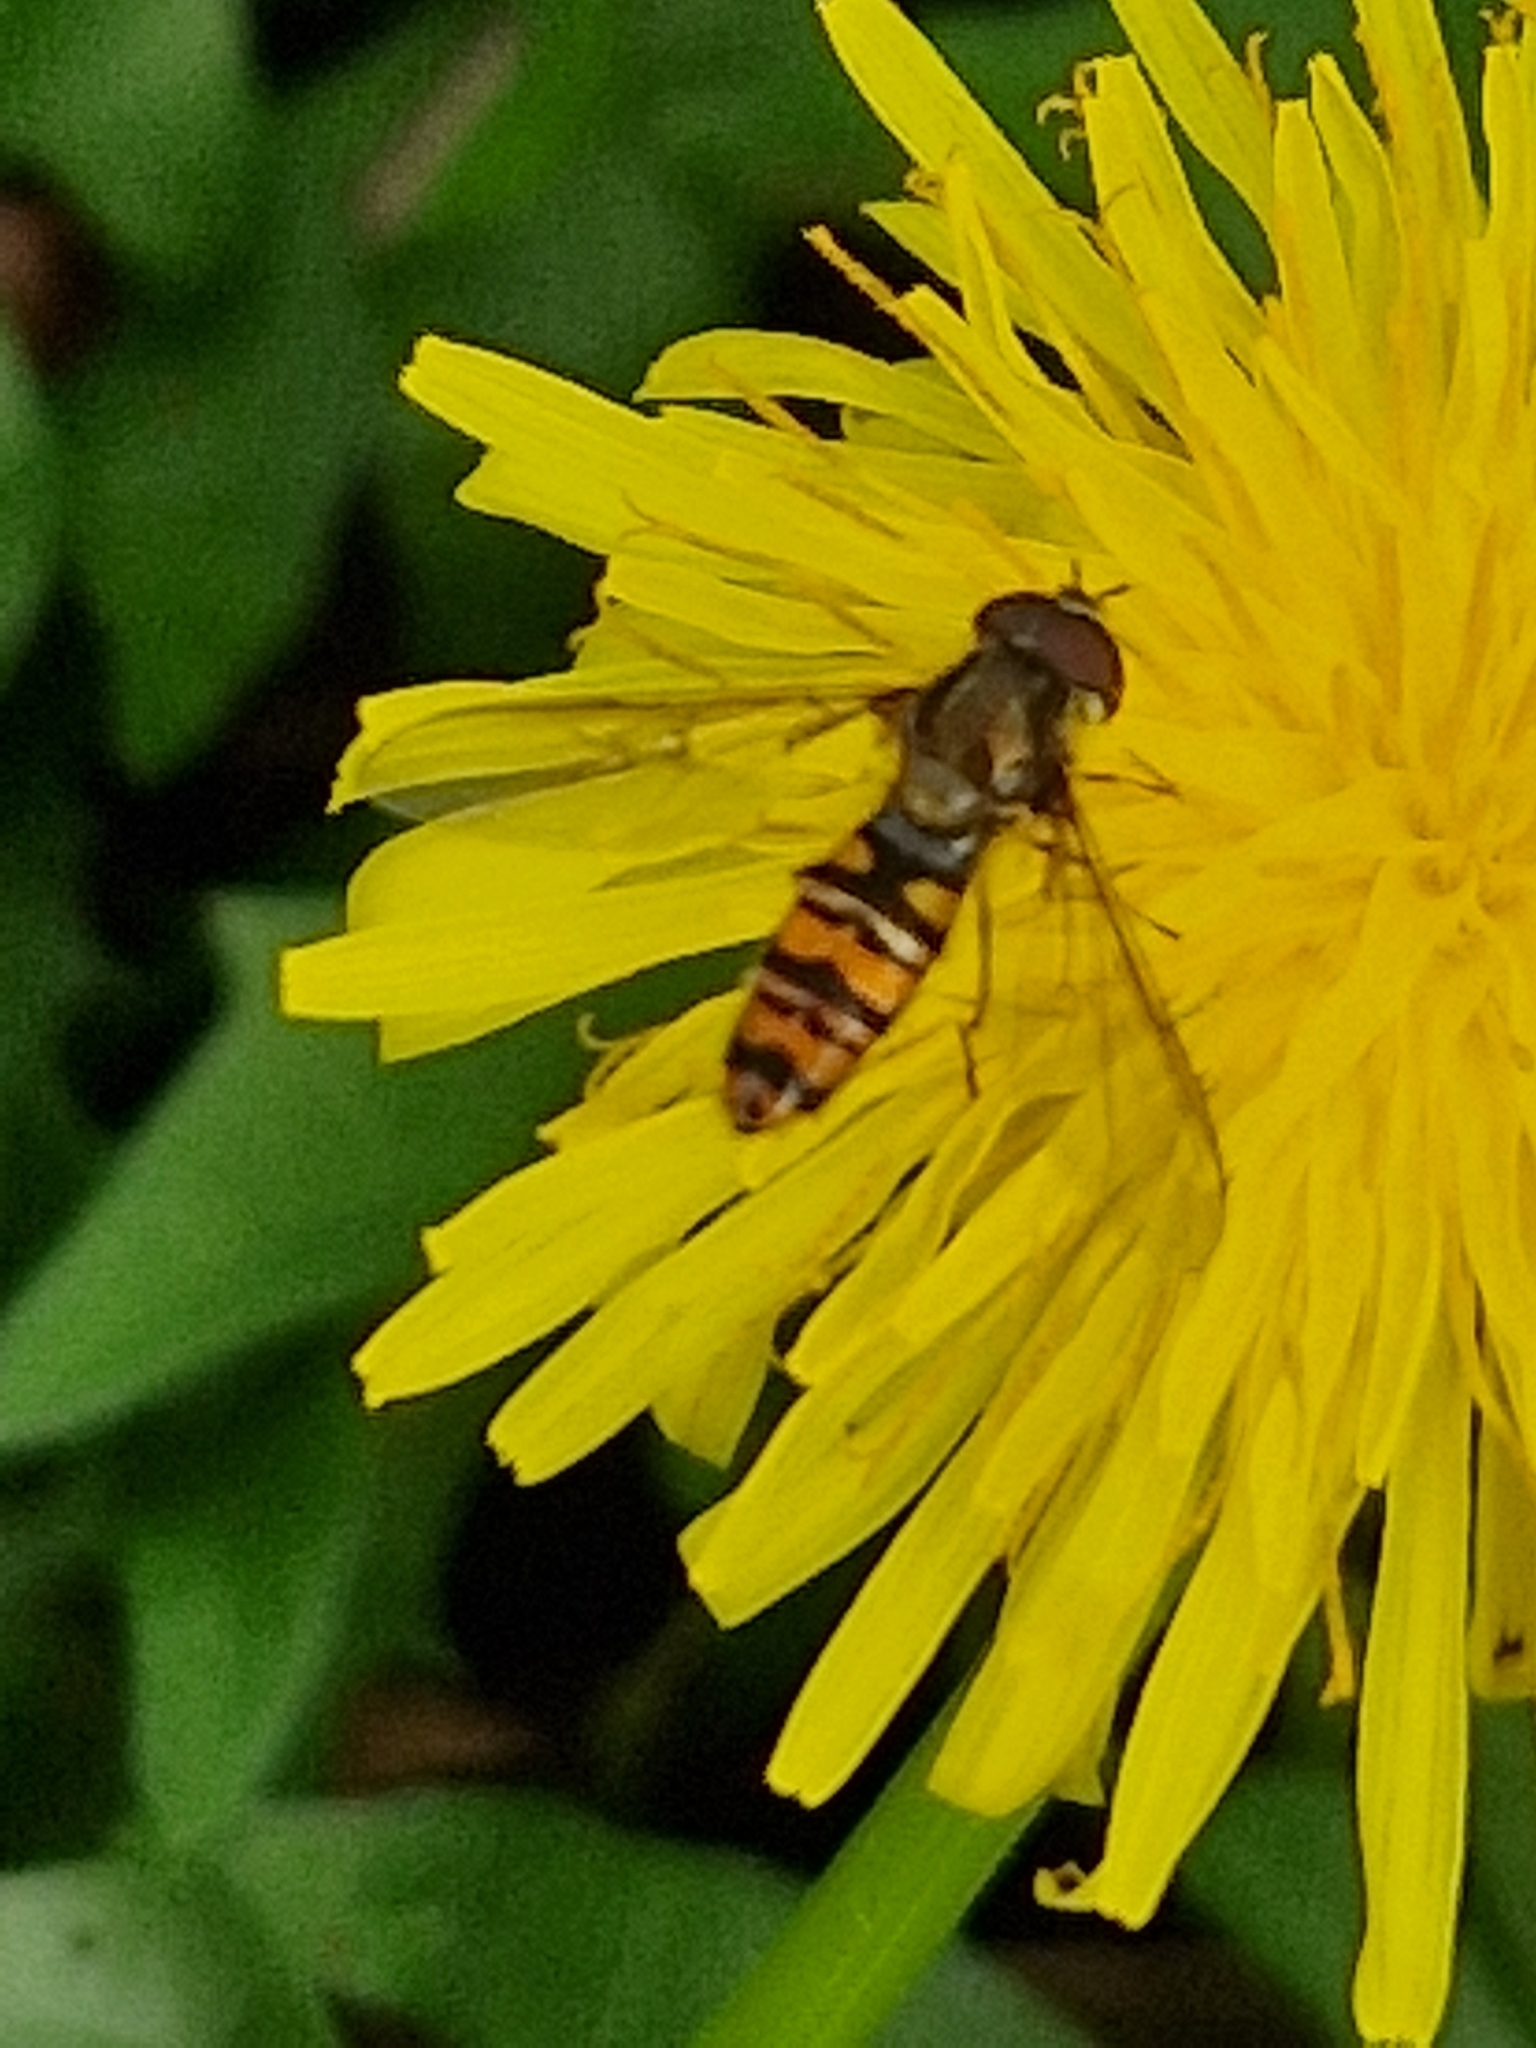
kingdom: Animalia
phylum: Arthropoda
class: Insecta
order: Diptera
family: Syrphidae
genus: Episyrphus
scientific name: Episyrphus balteatus
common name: Marmalade hoverfly
